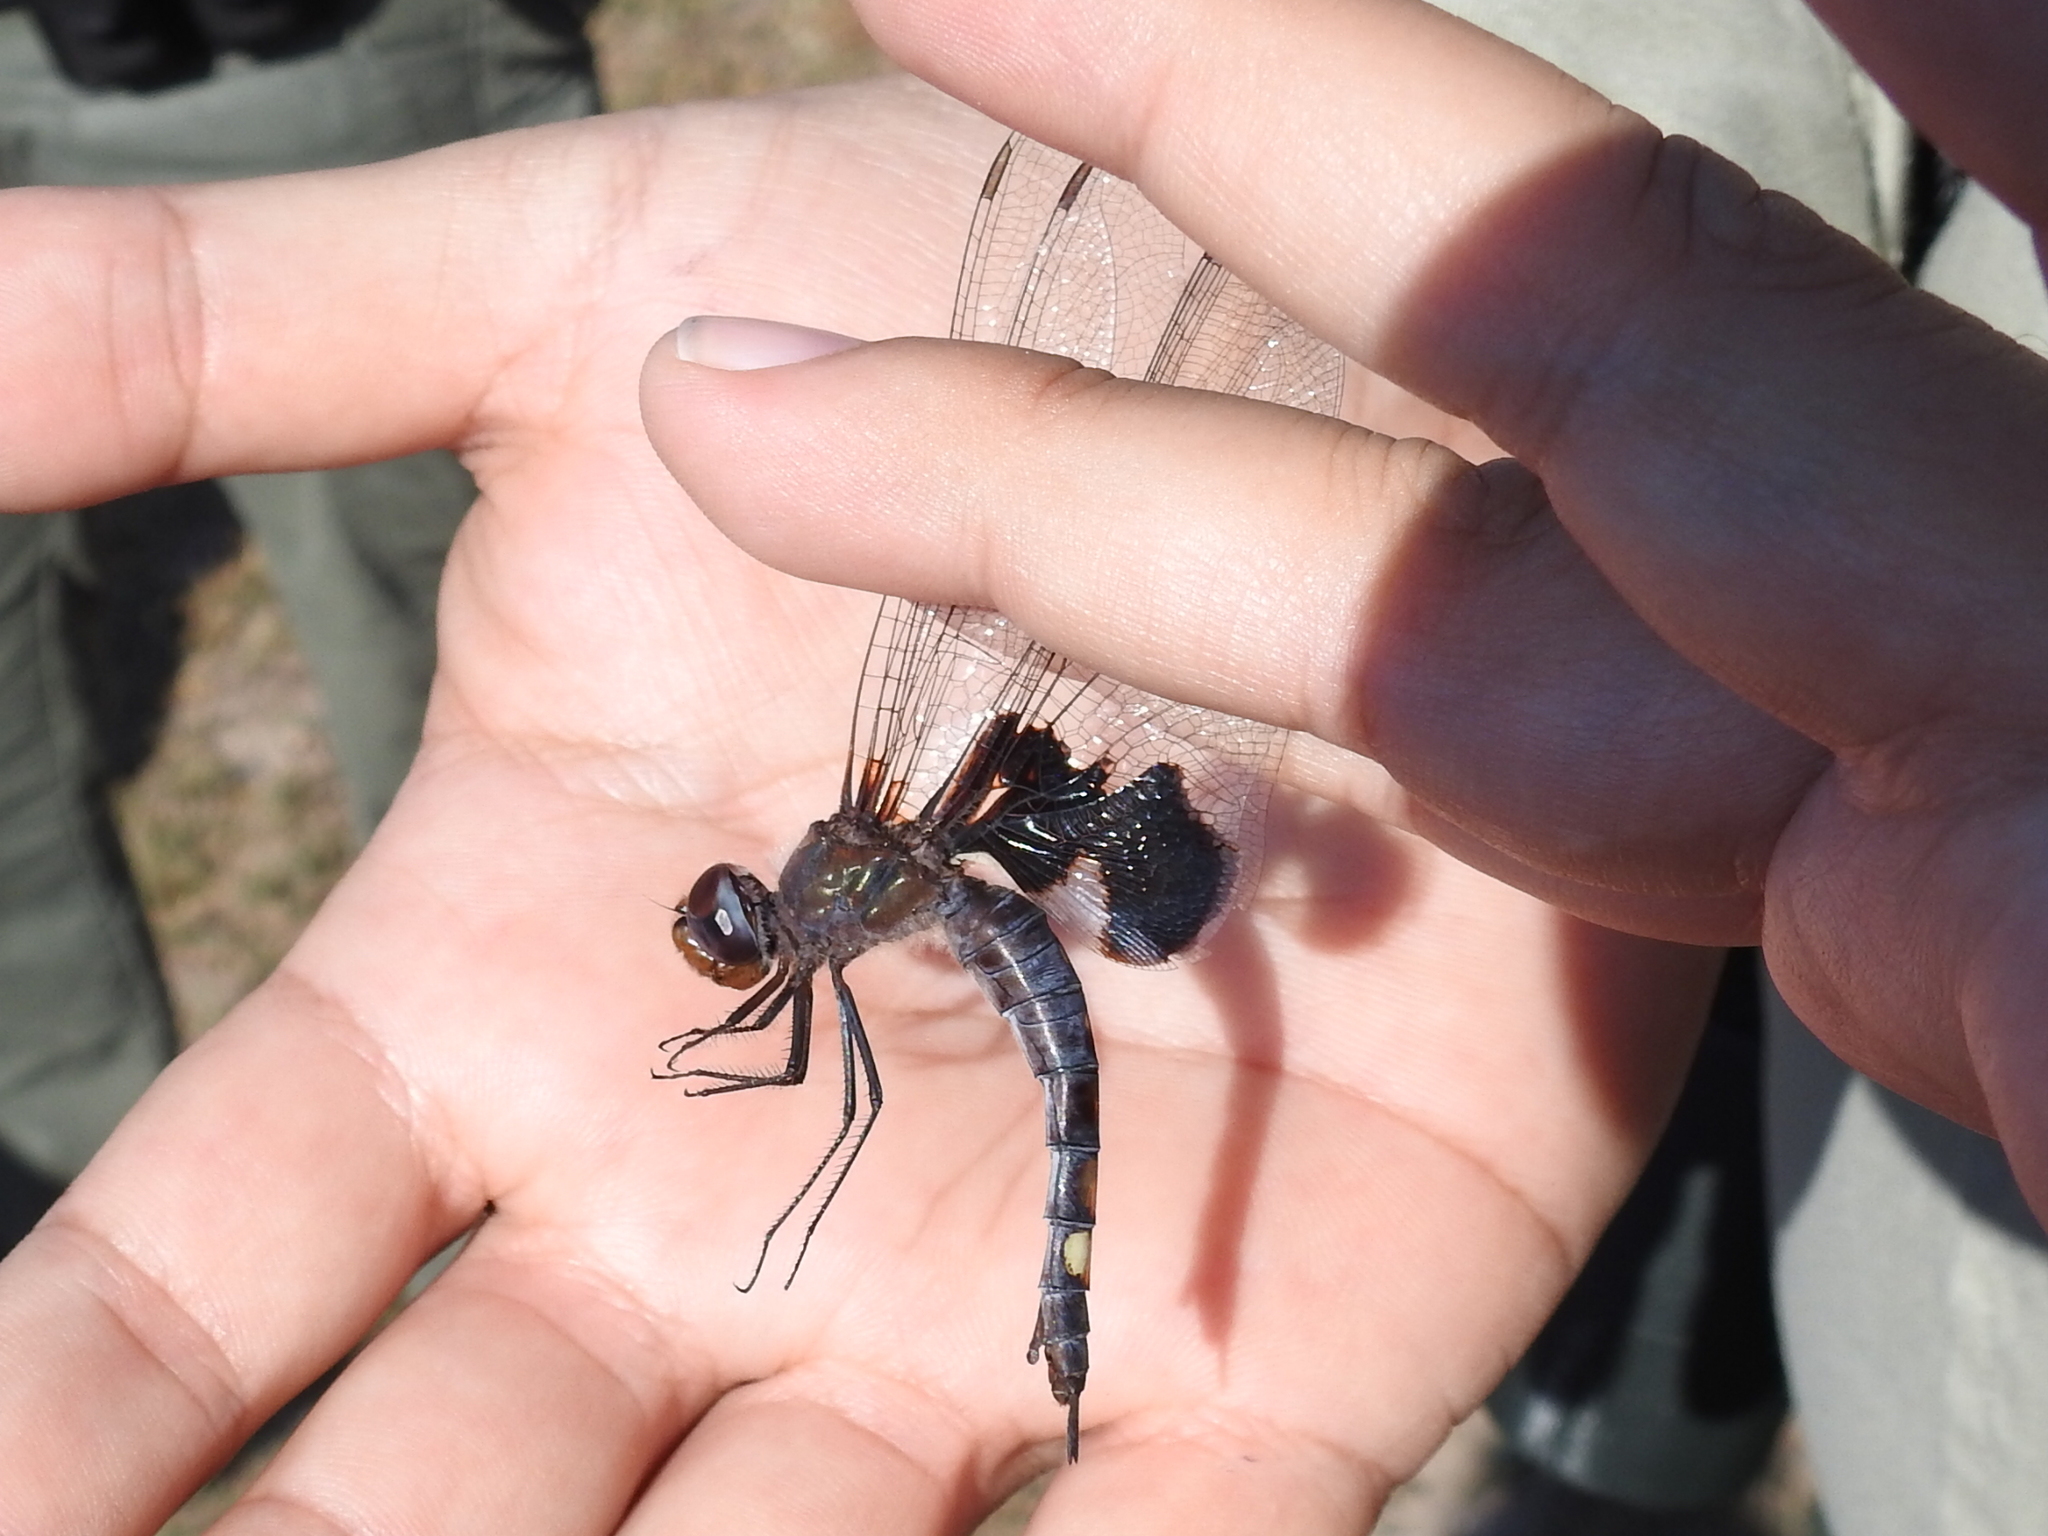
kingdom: Animalia
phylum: Arthropoda
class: Insecta
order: Odonata
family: Libellulidae
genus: Tramea
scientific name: Tramea lacerata
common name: Black saddlebags
